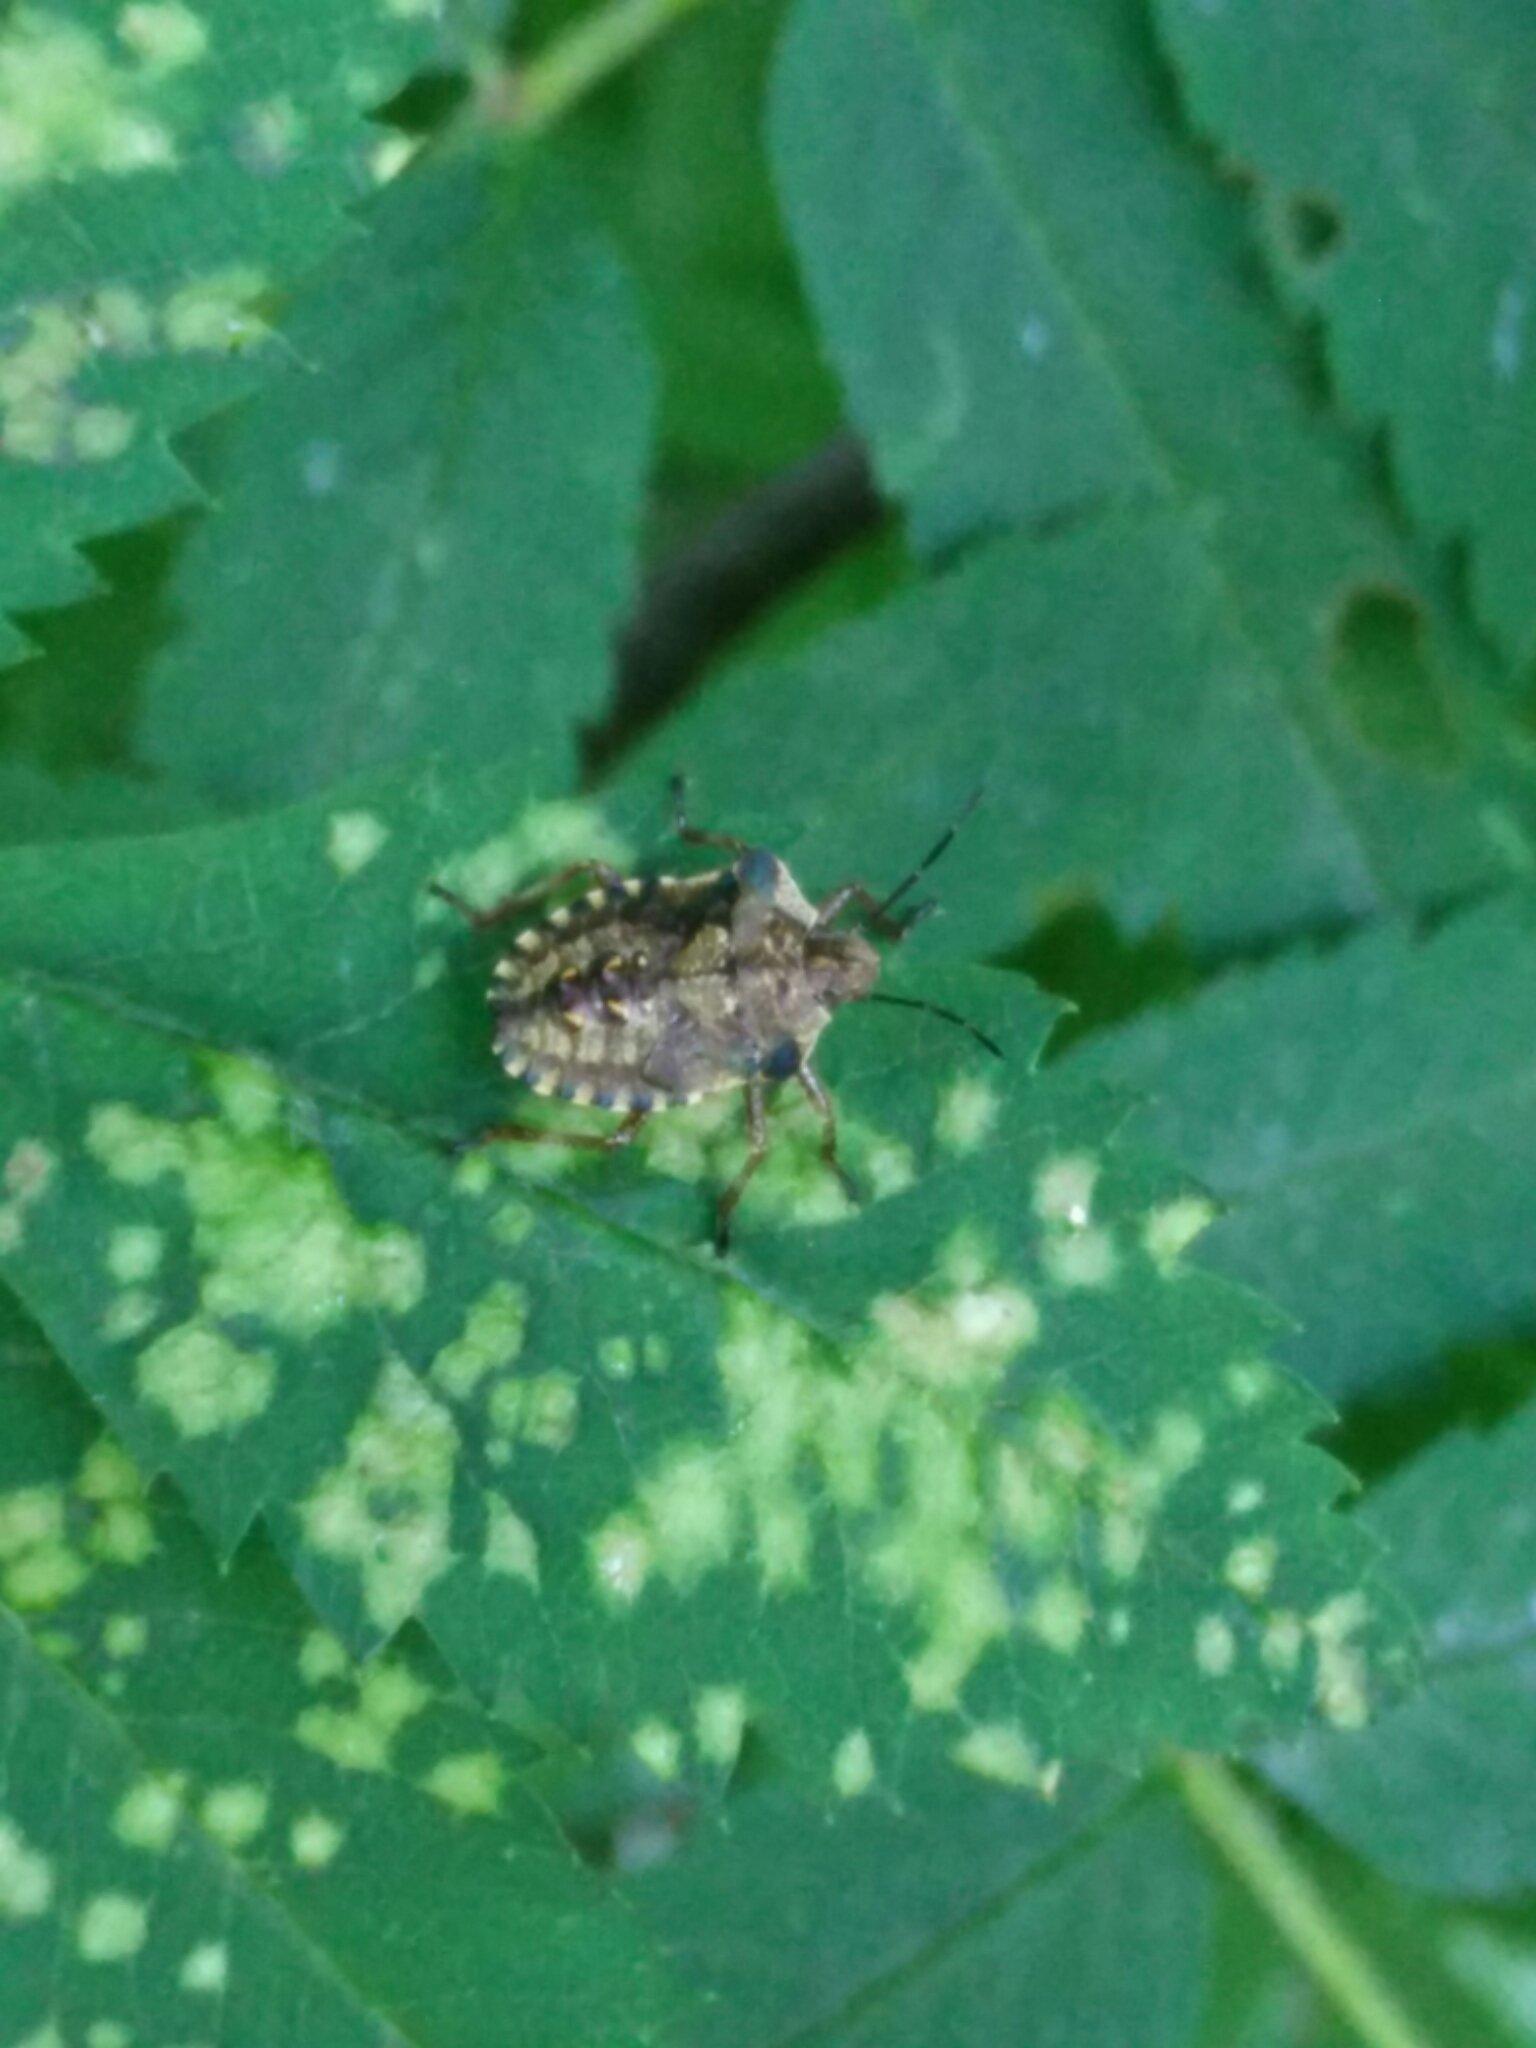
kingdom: Animalia
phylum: Arthropoda
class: Insecta
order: Hemiptera
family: Pentatomidae
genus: Pentatoma
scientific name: Pentatoma rufipes
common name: Forest bug
